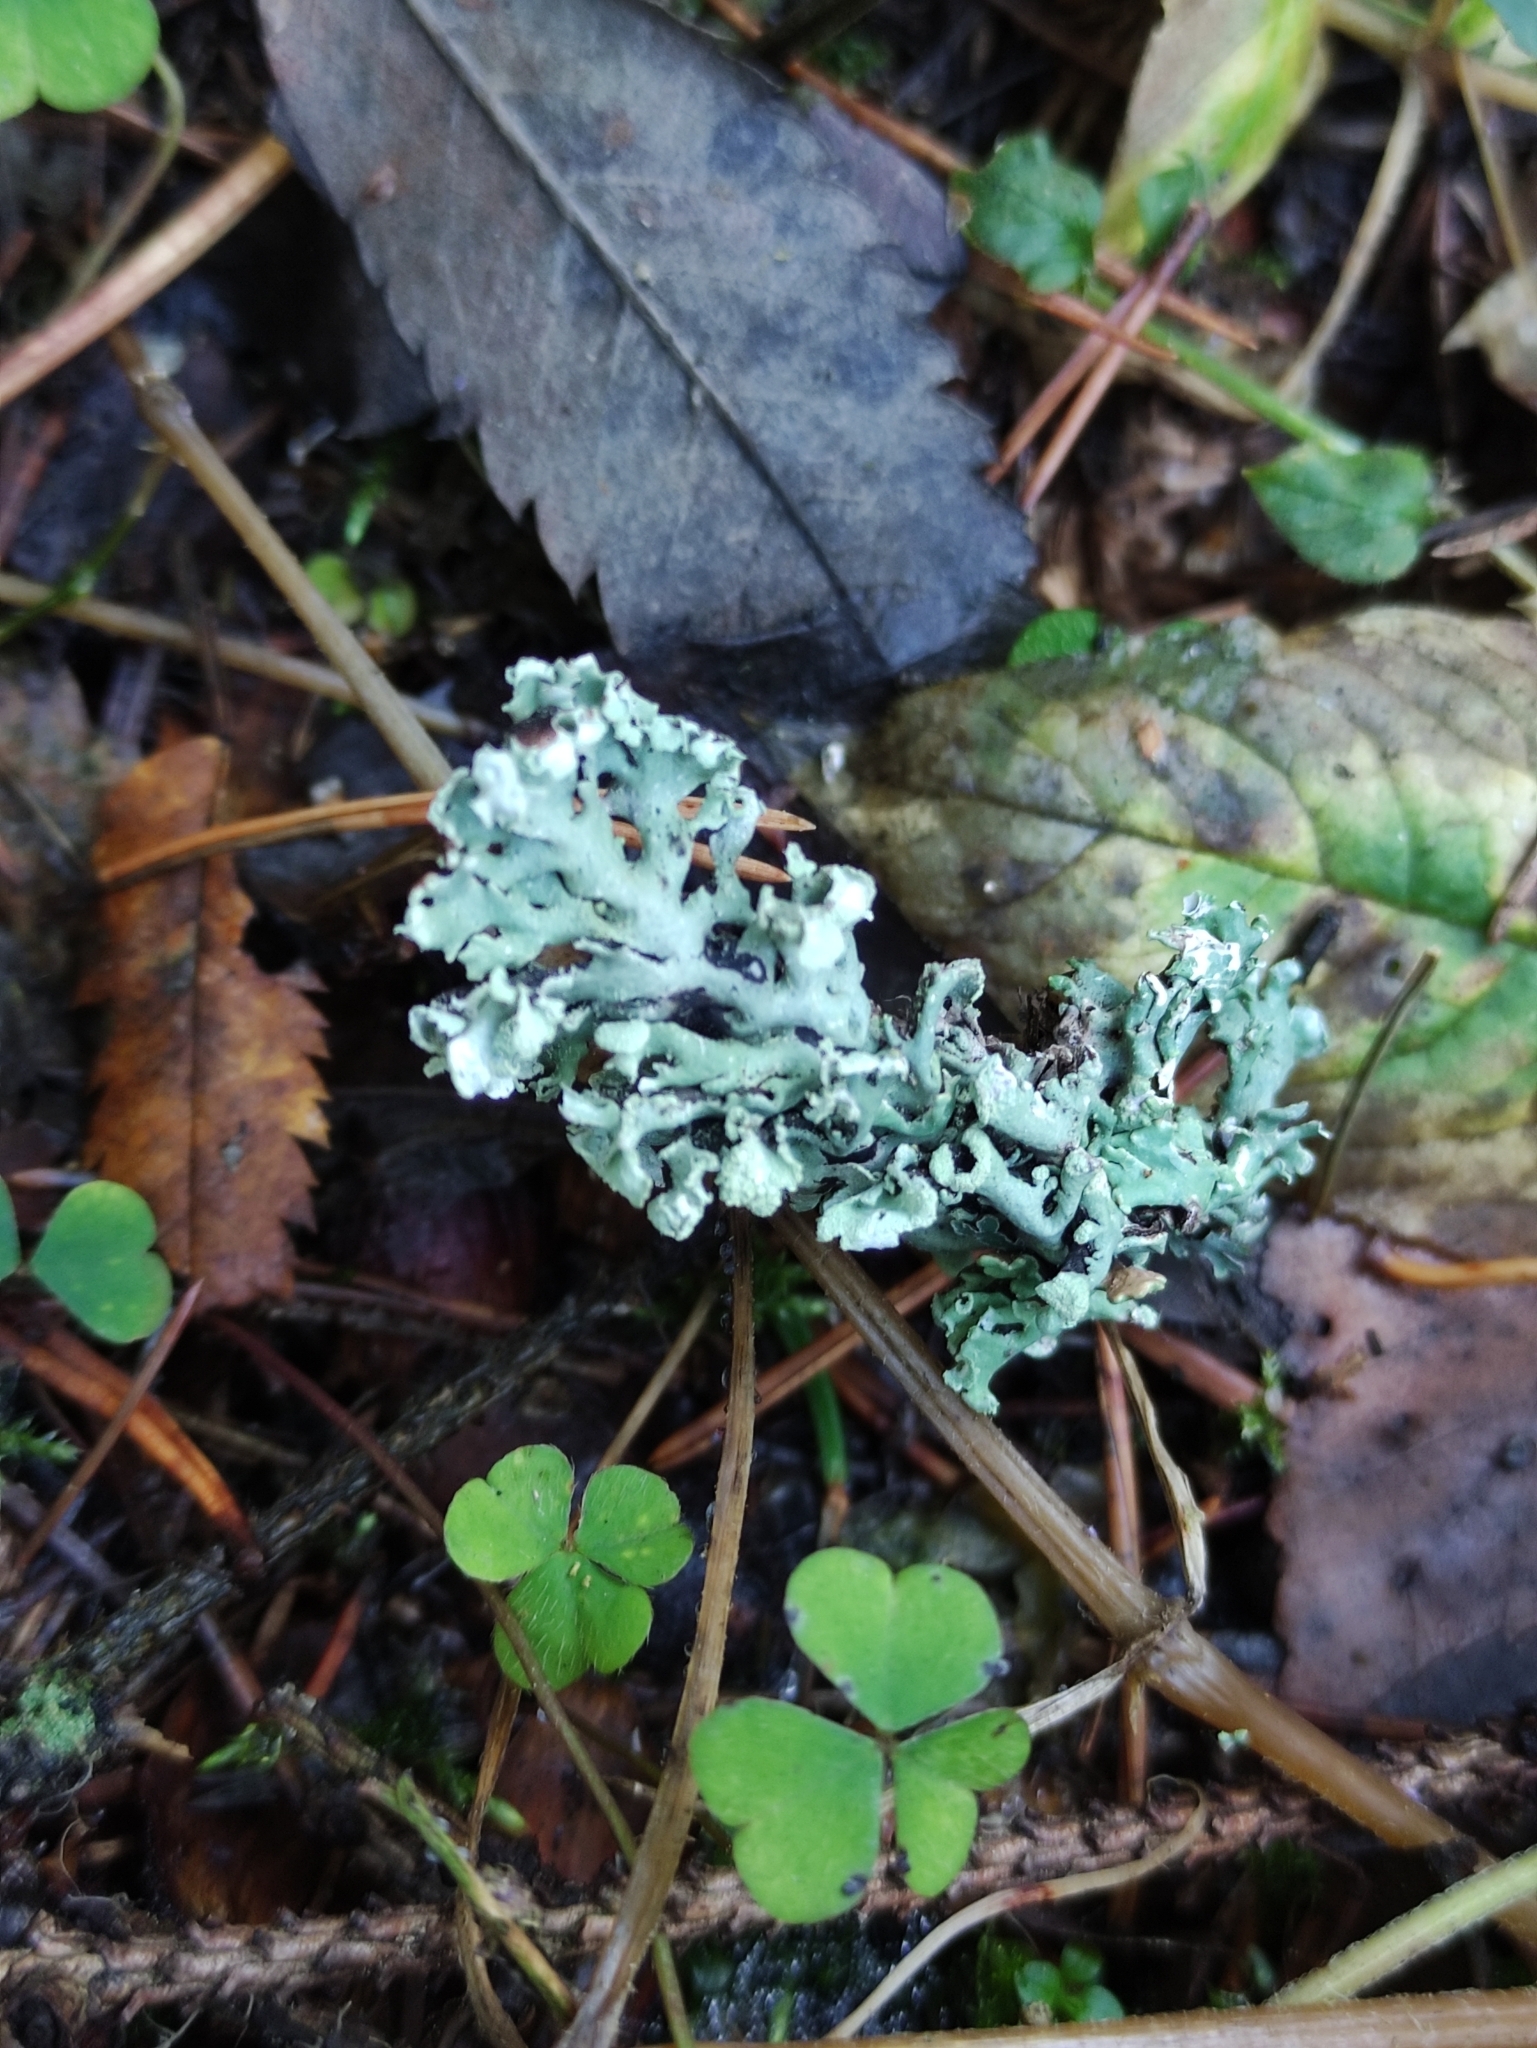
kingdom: Fungi
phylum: Ascomycota
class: Lecanoromycetes
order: Lecanorales
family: Parmeliaceae
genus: Hypogymnia
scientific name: Hypogymnia physodes
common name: Dark crottle
